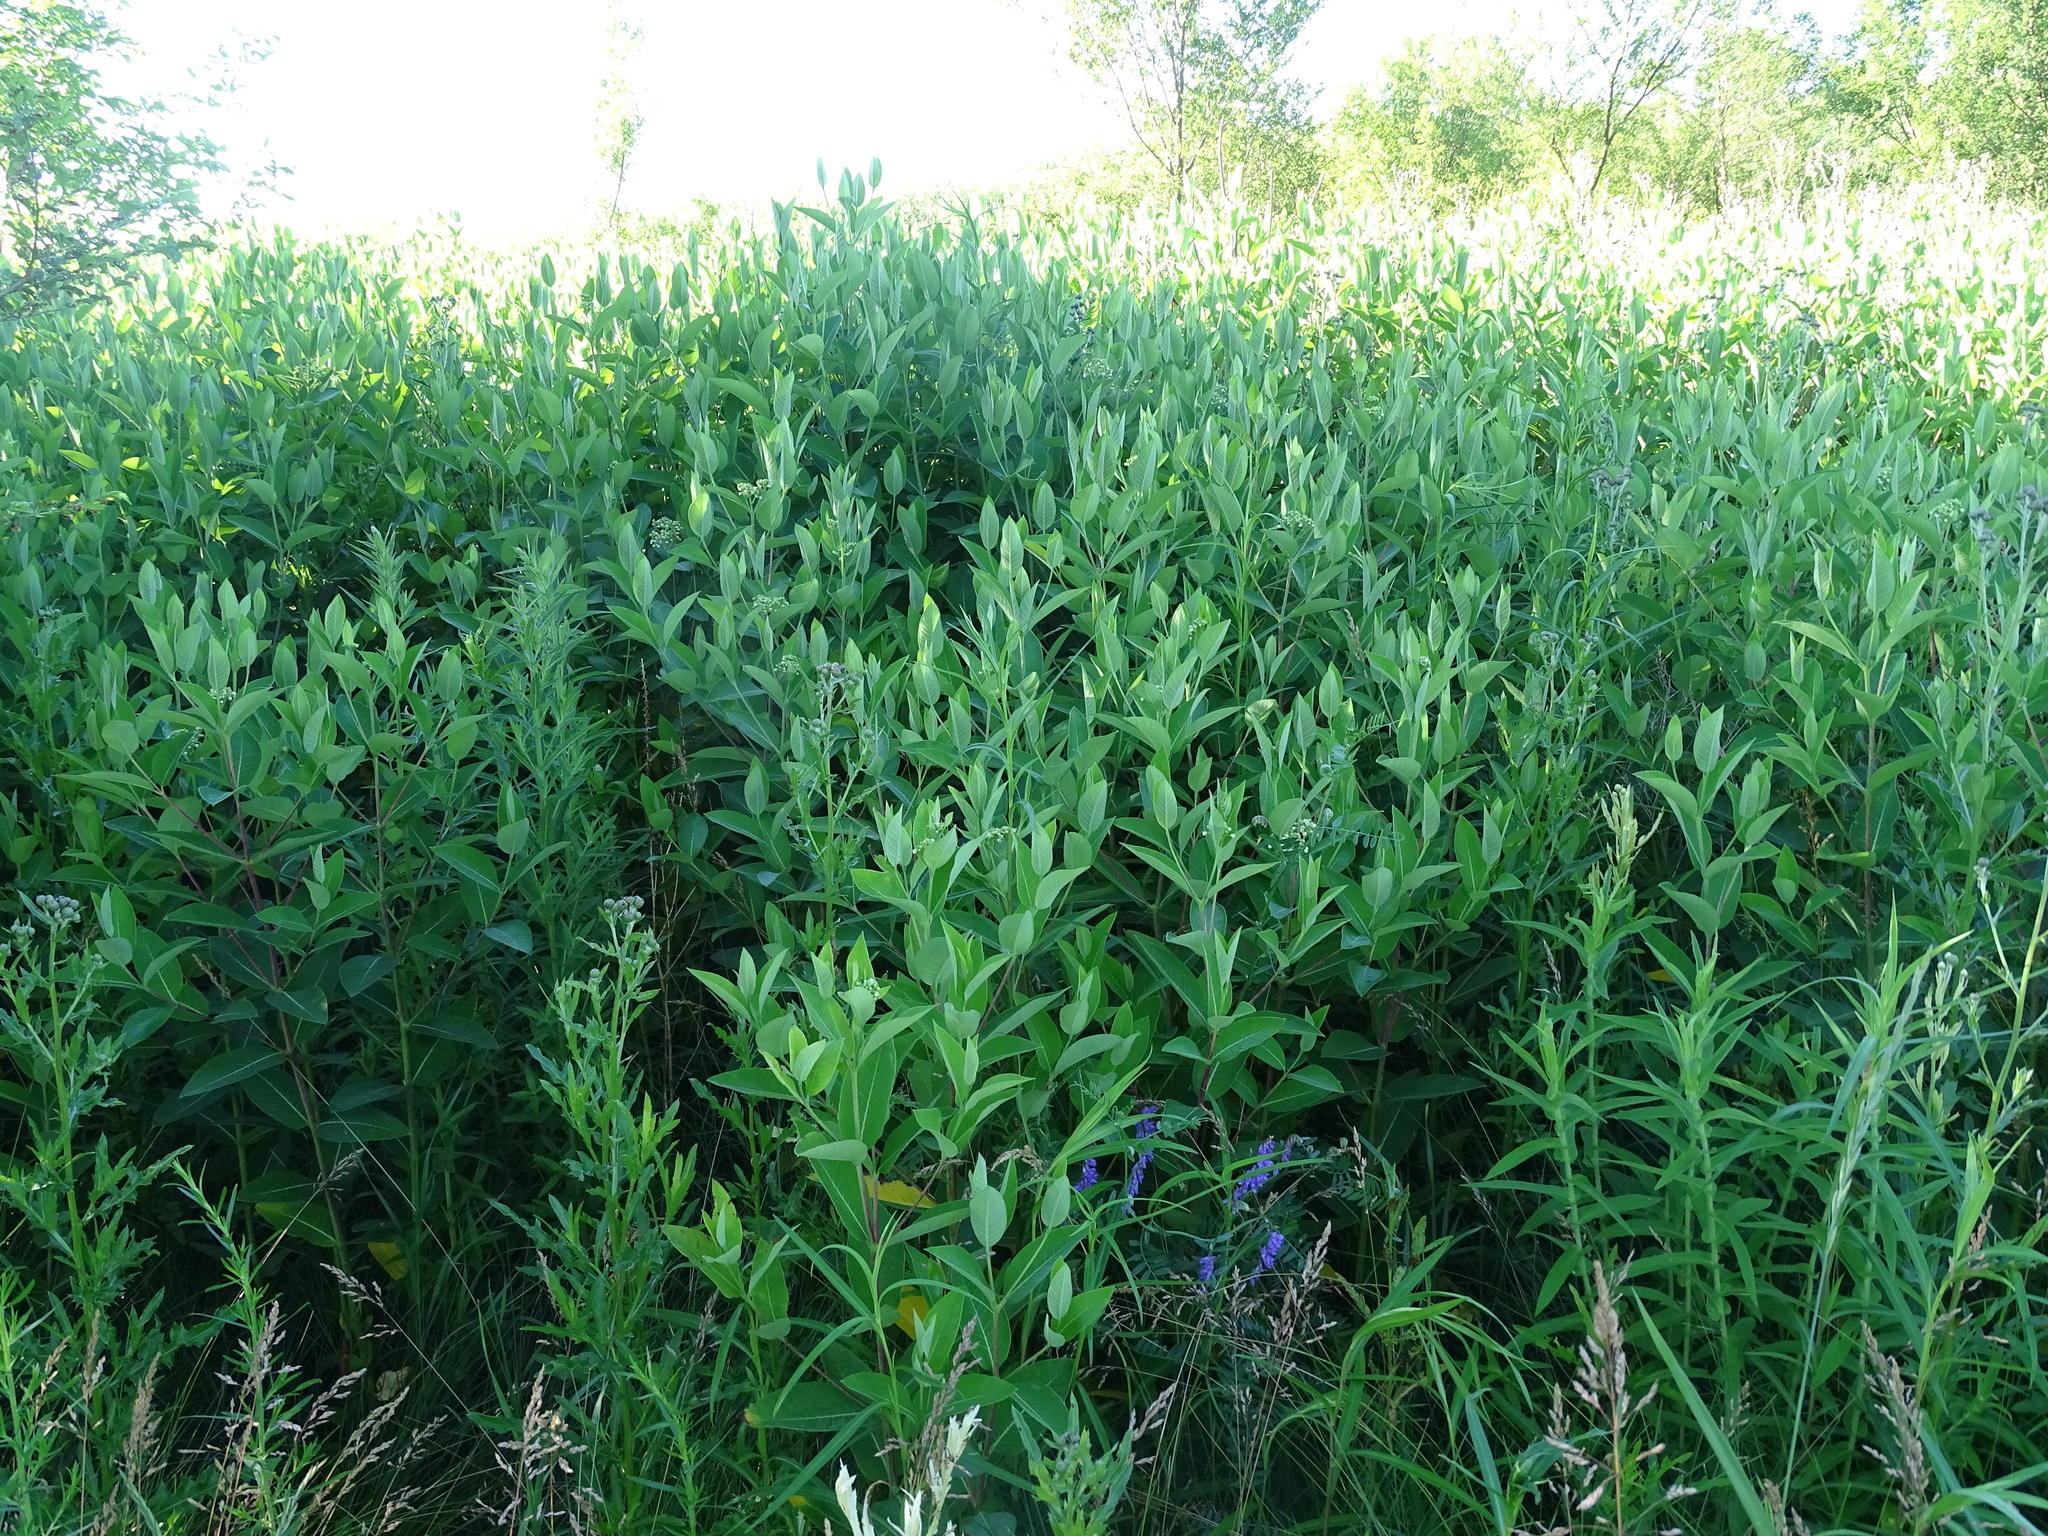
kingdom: Plantae
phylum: Tracheophyta
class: Magnoliopsida
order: Gentianales
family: Apocynaceae
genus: Apocynum
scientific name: Apocynum cannabinum
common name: Hemp dogbane
